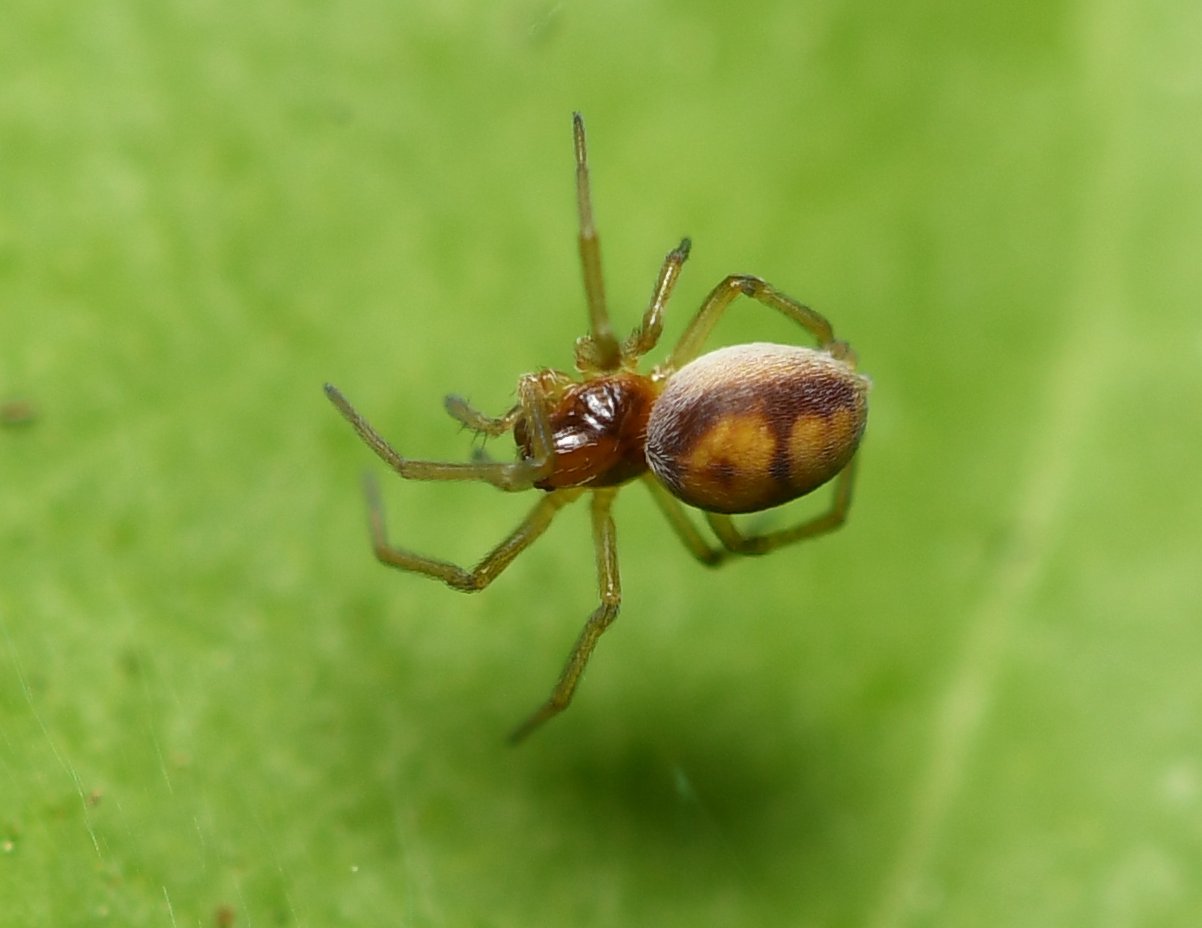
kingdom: Animalia
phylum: Arthropoda
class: Arachnida
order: Araneae
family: Dictynidae
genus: Emblyna
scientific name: Emblyna florens
